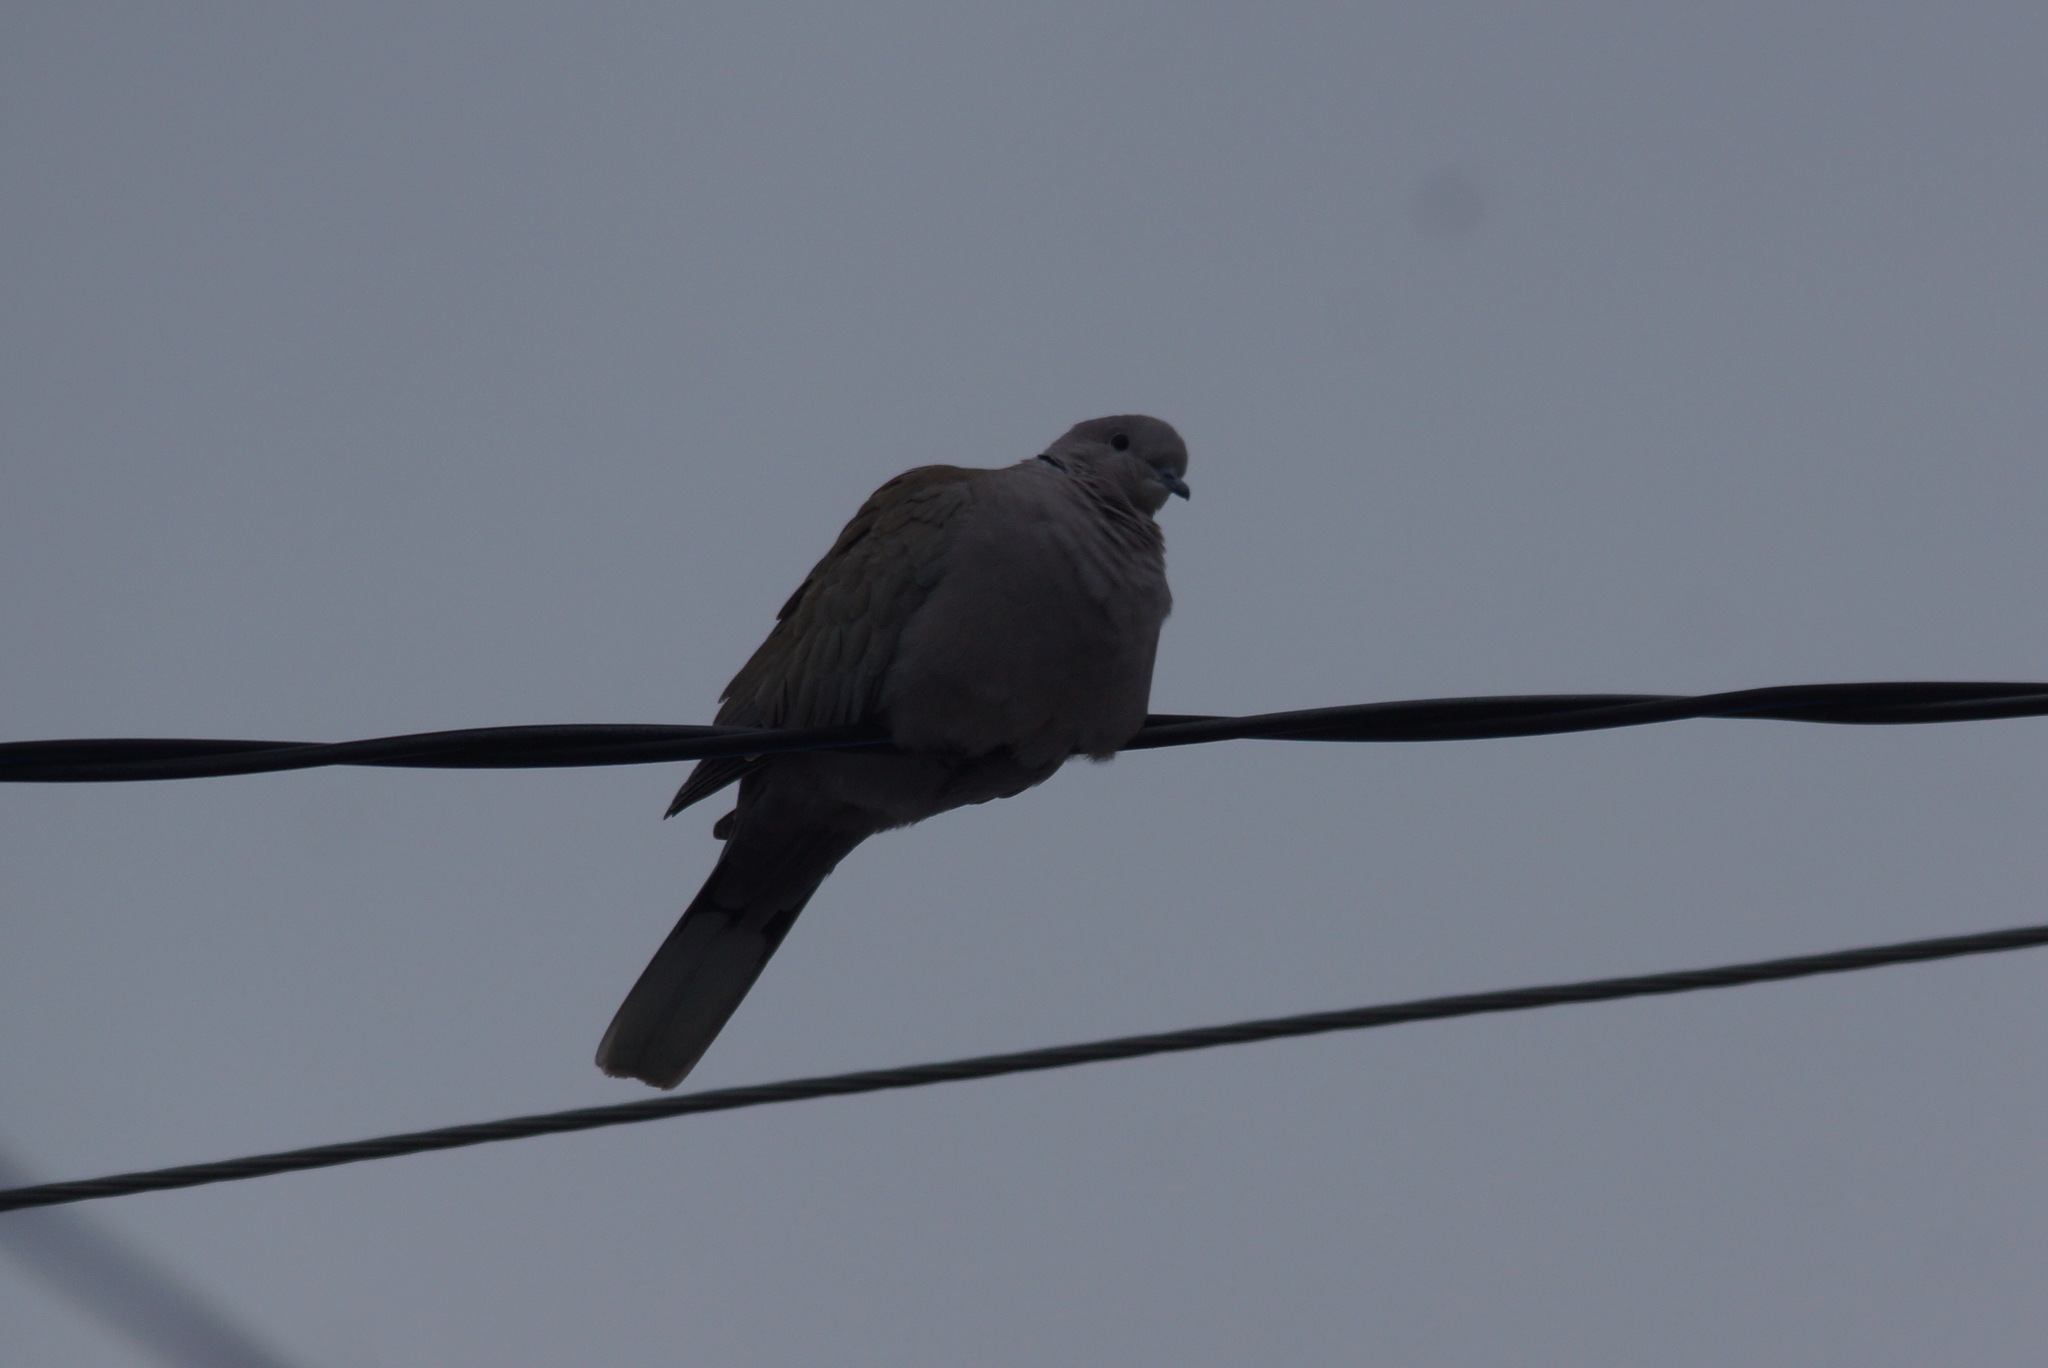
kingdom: Animalia
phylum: Chordata
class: Aves
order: Columbiformes
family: Columbidae
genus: Streptopelia
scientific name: Streptopelia decaocto
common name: Eurasian collared dove
